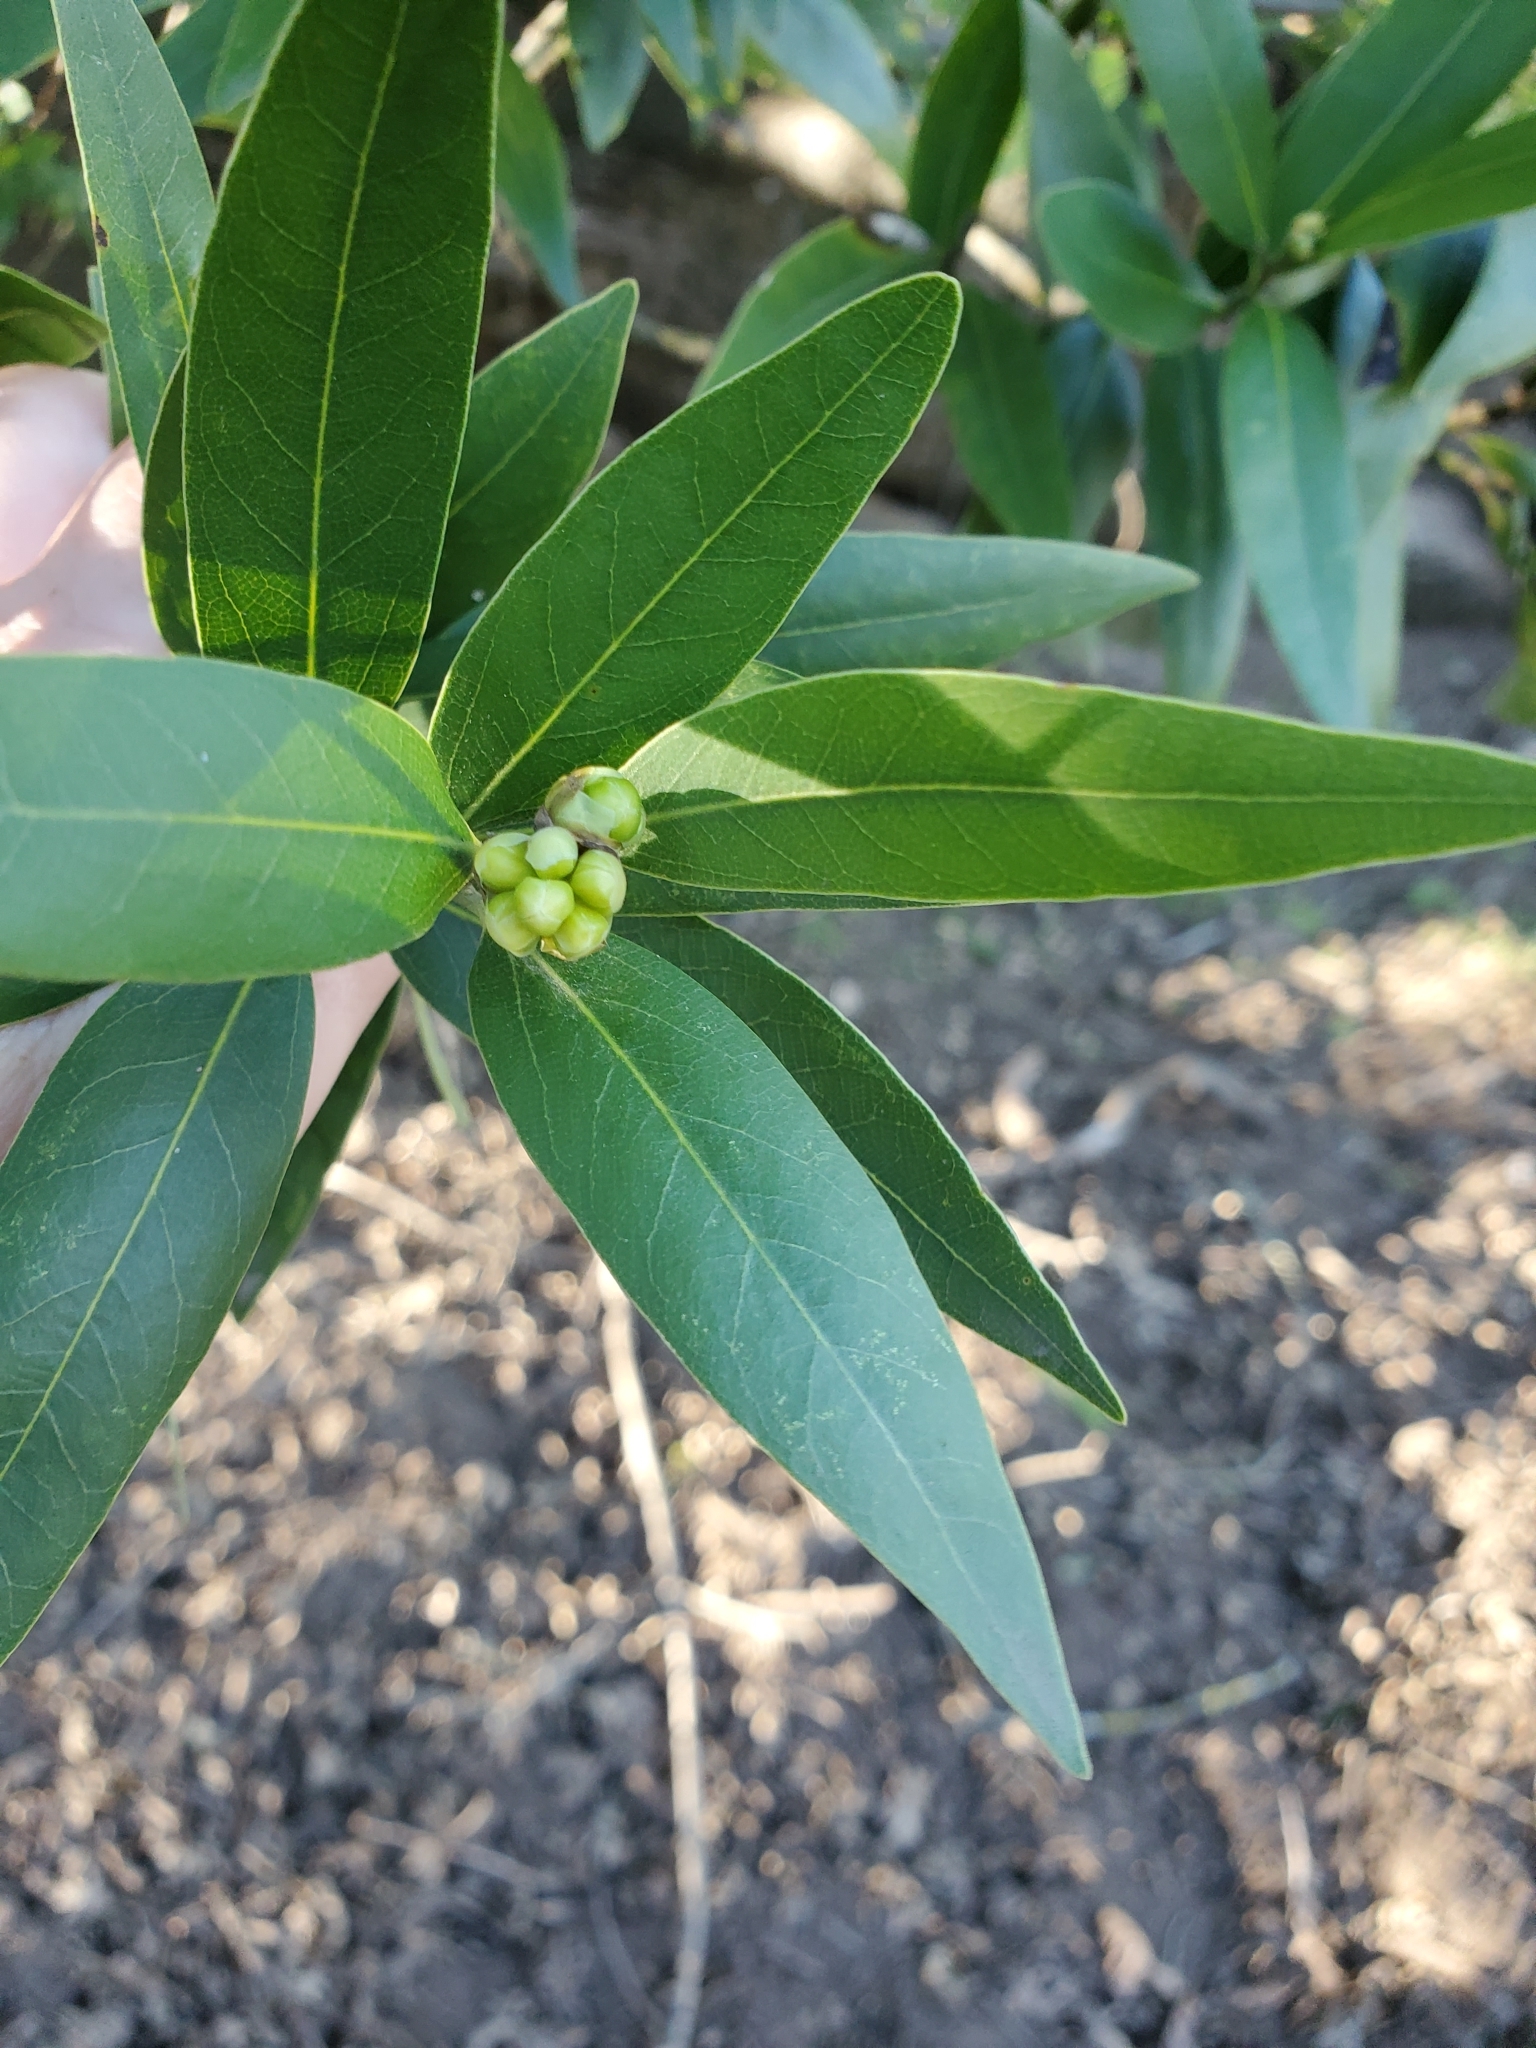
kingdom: Plantae
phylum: Tracheophyta
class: Magnoliopsida
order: Laurales
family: Lauraceae
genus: Umbellularia
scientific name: Umbellularia californica
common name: California bay
